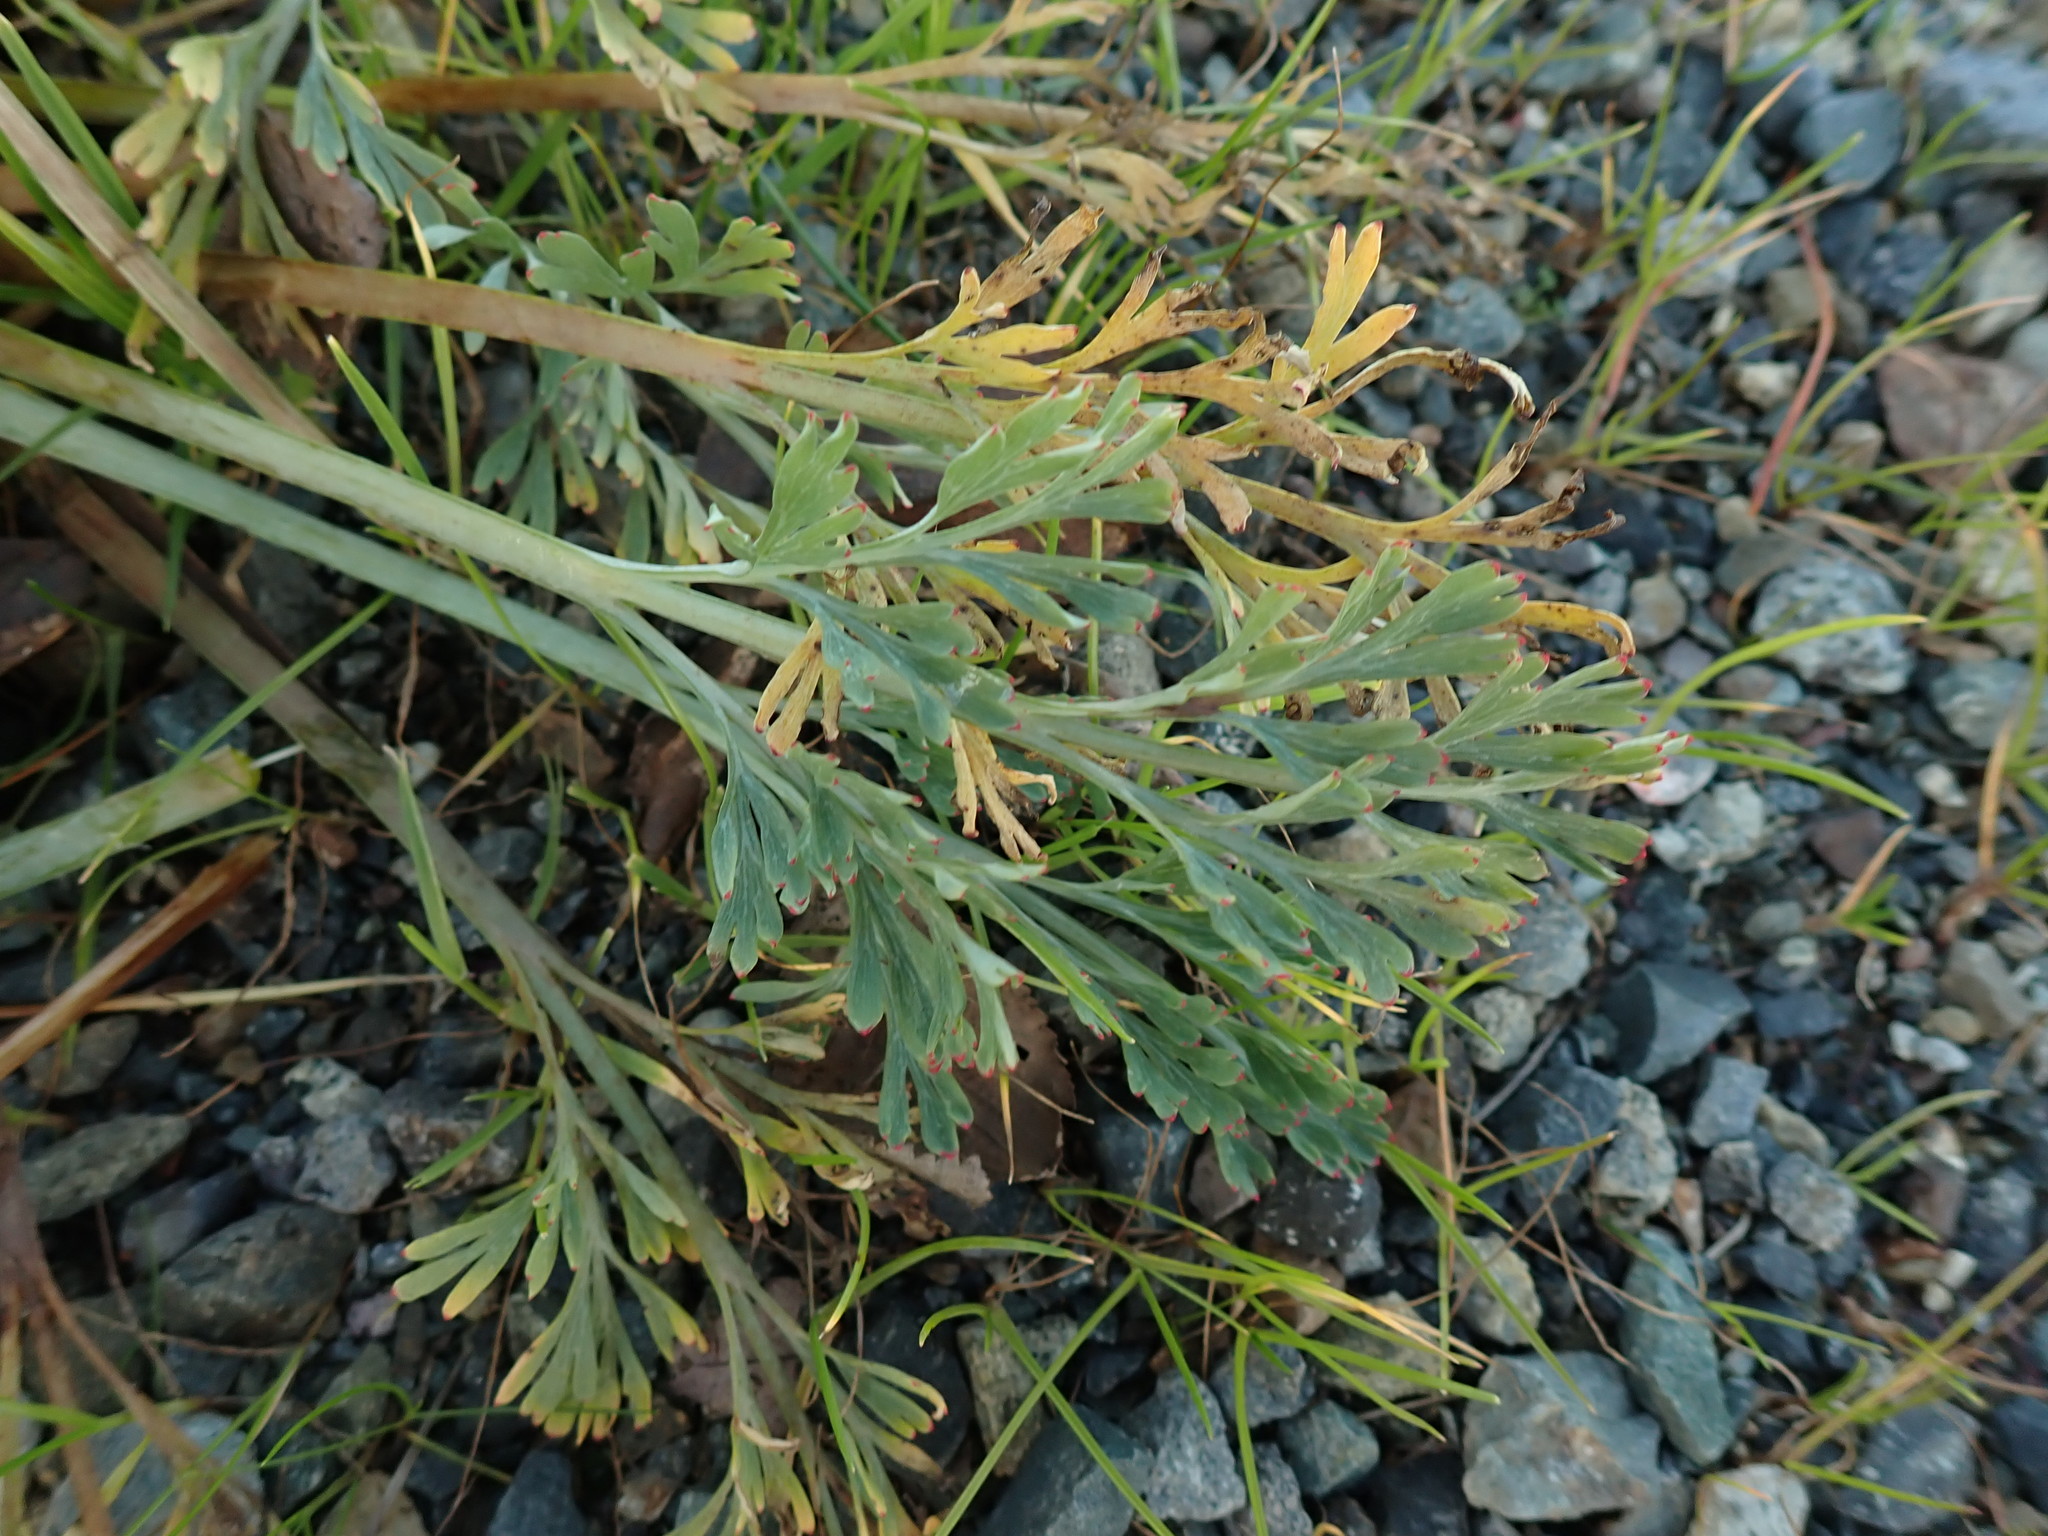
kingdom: Plantae
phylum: Tracheophyta
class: Magnoliopsida
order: Ranunculales
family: Papaveraceae
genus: Eschscholzia
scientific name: Eschscholzia californica
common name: California poppy
